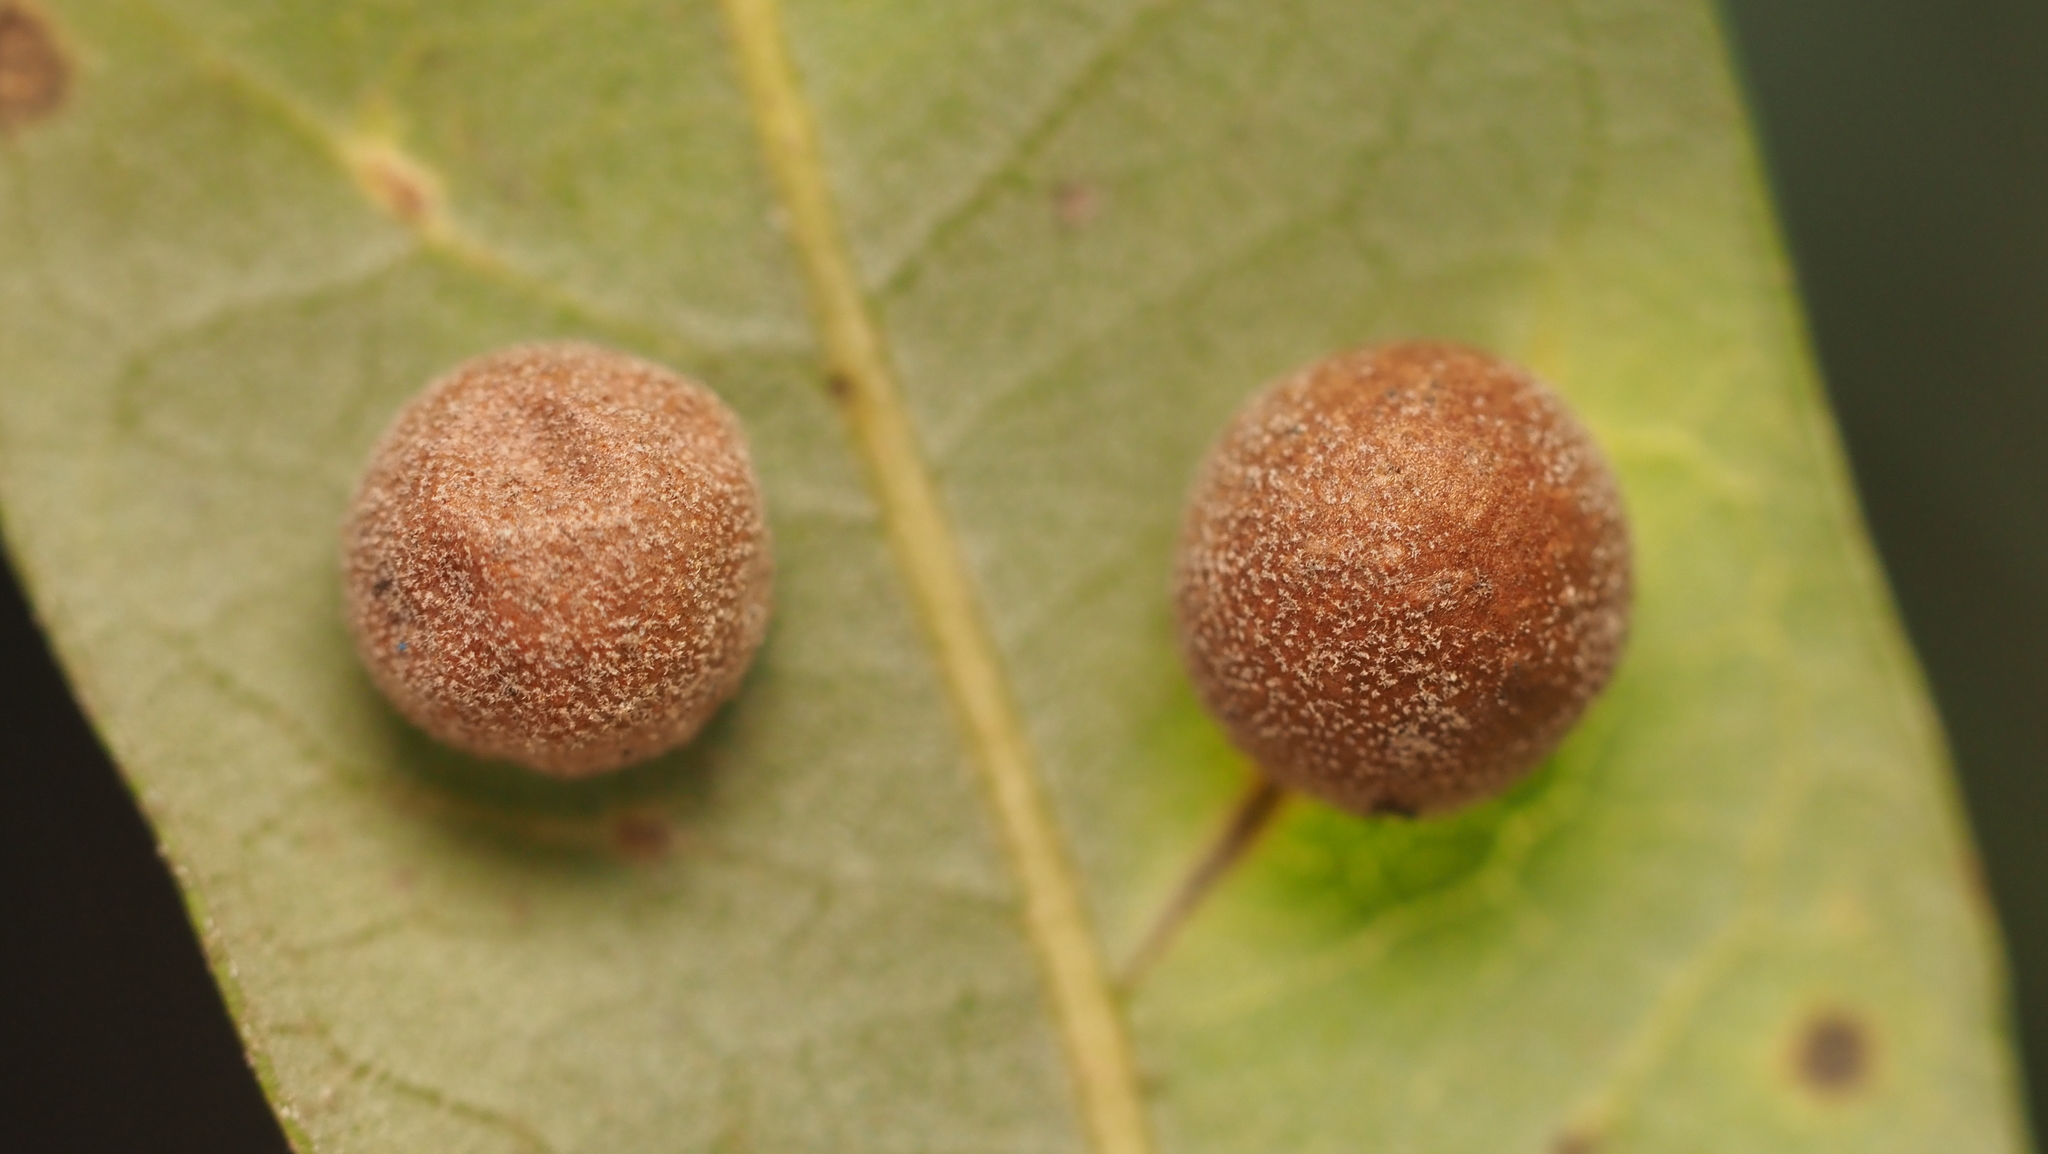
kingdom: Animalia
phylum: Arthropoda
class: Insecta
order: Hymenoptera
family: Cynipidae
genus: Belonocnema
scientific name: Belonocnema kinseyi
